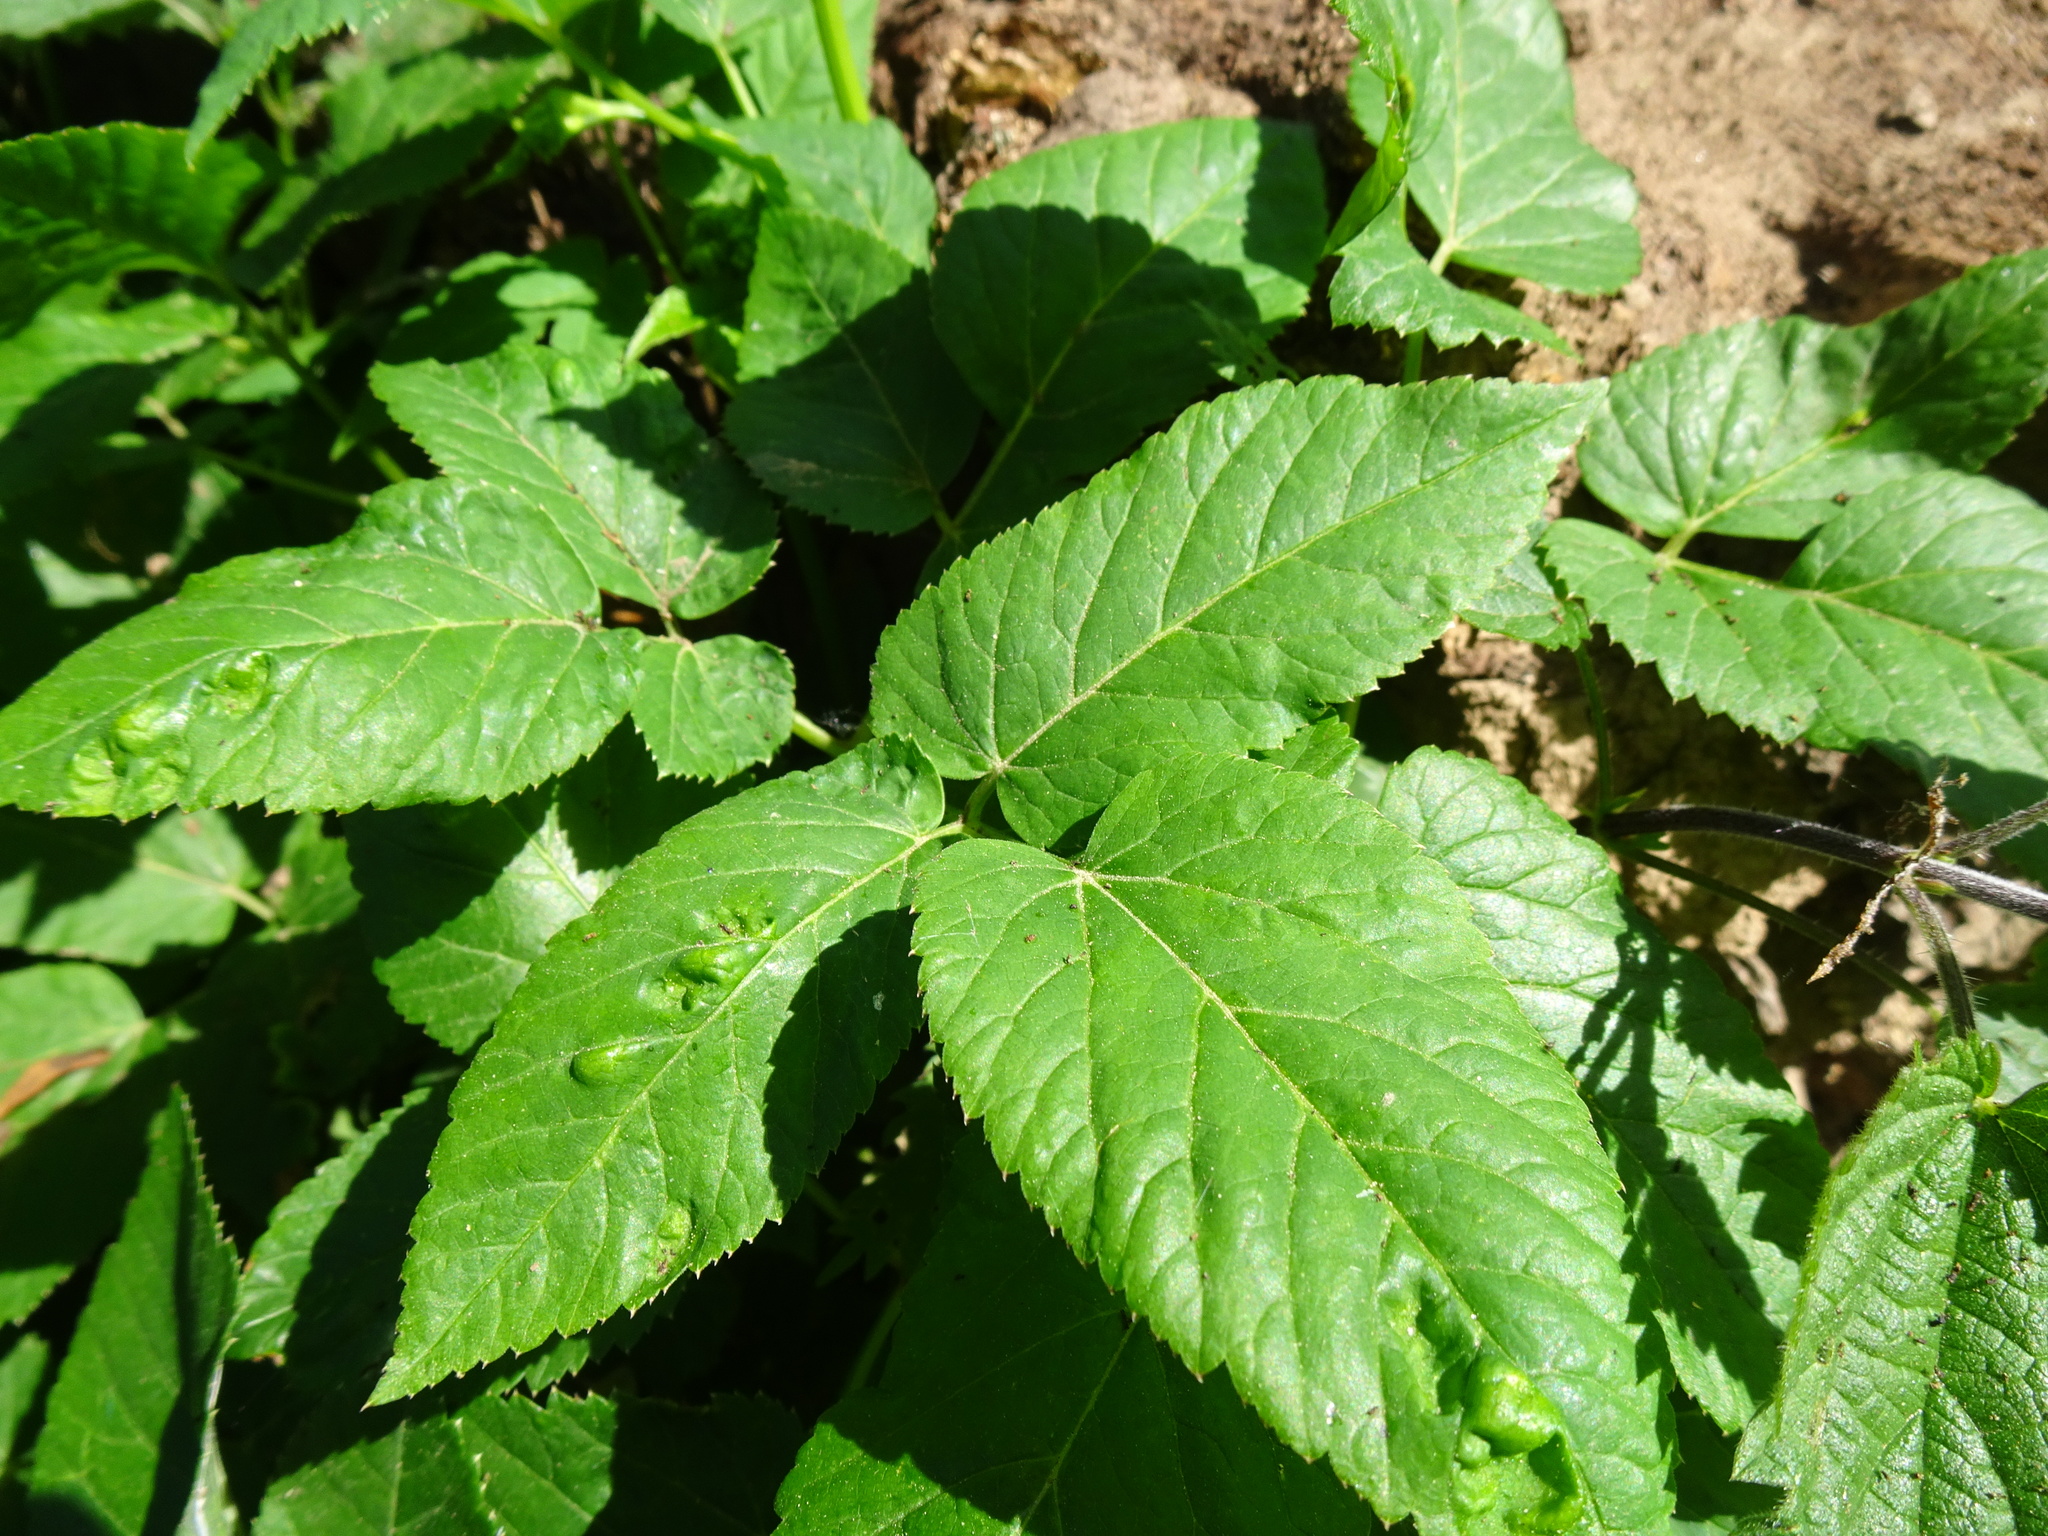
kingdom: Plantae
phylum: Tracheophyta
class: Magnoliopsida
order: Apiales
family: Apiaceae
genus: Aegopodium
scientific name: Aegopodium podagraria
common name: Ground-elder
